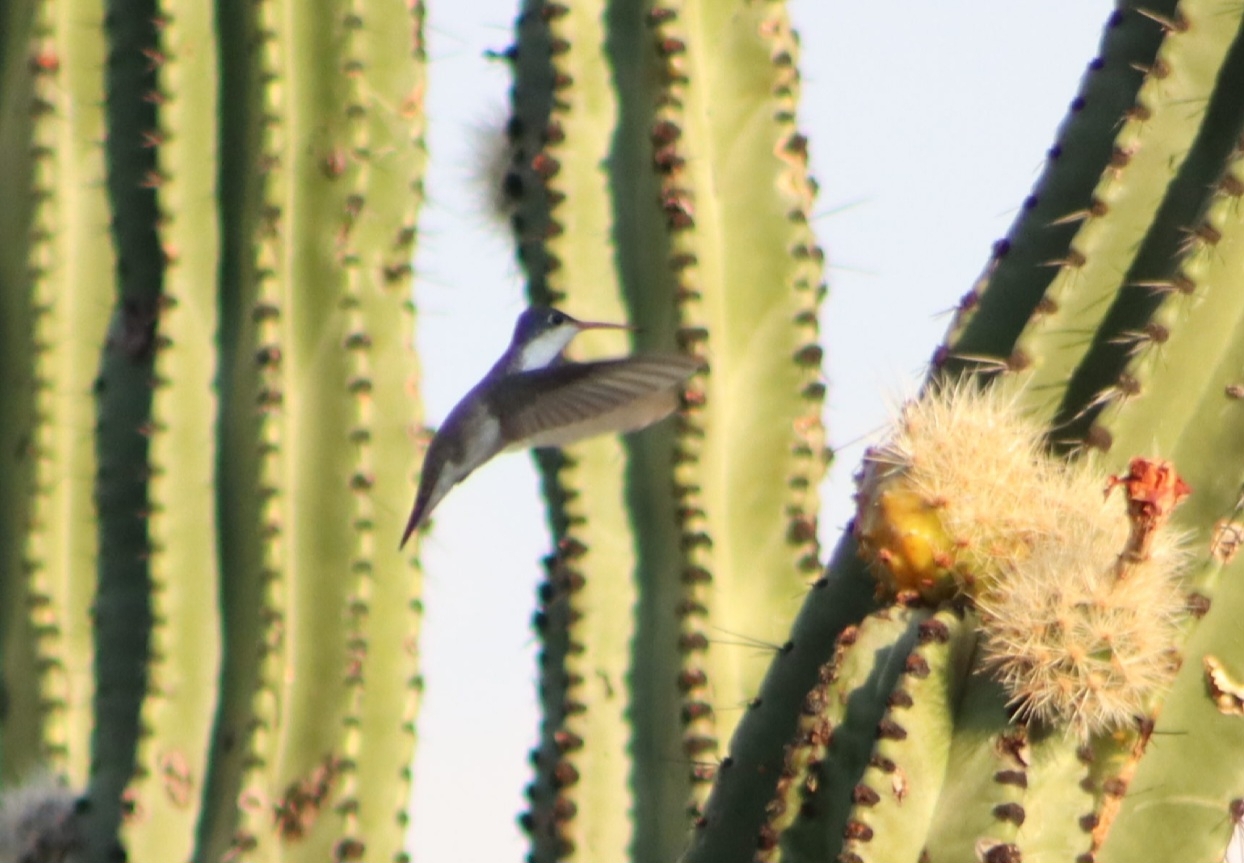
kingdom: Animalia
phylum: Chordata
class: Aves
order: Apodiformes
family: Trochilidae
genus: Leucolia
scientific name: Leucolia violiceps
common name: Violet-crowned hummingbird
